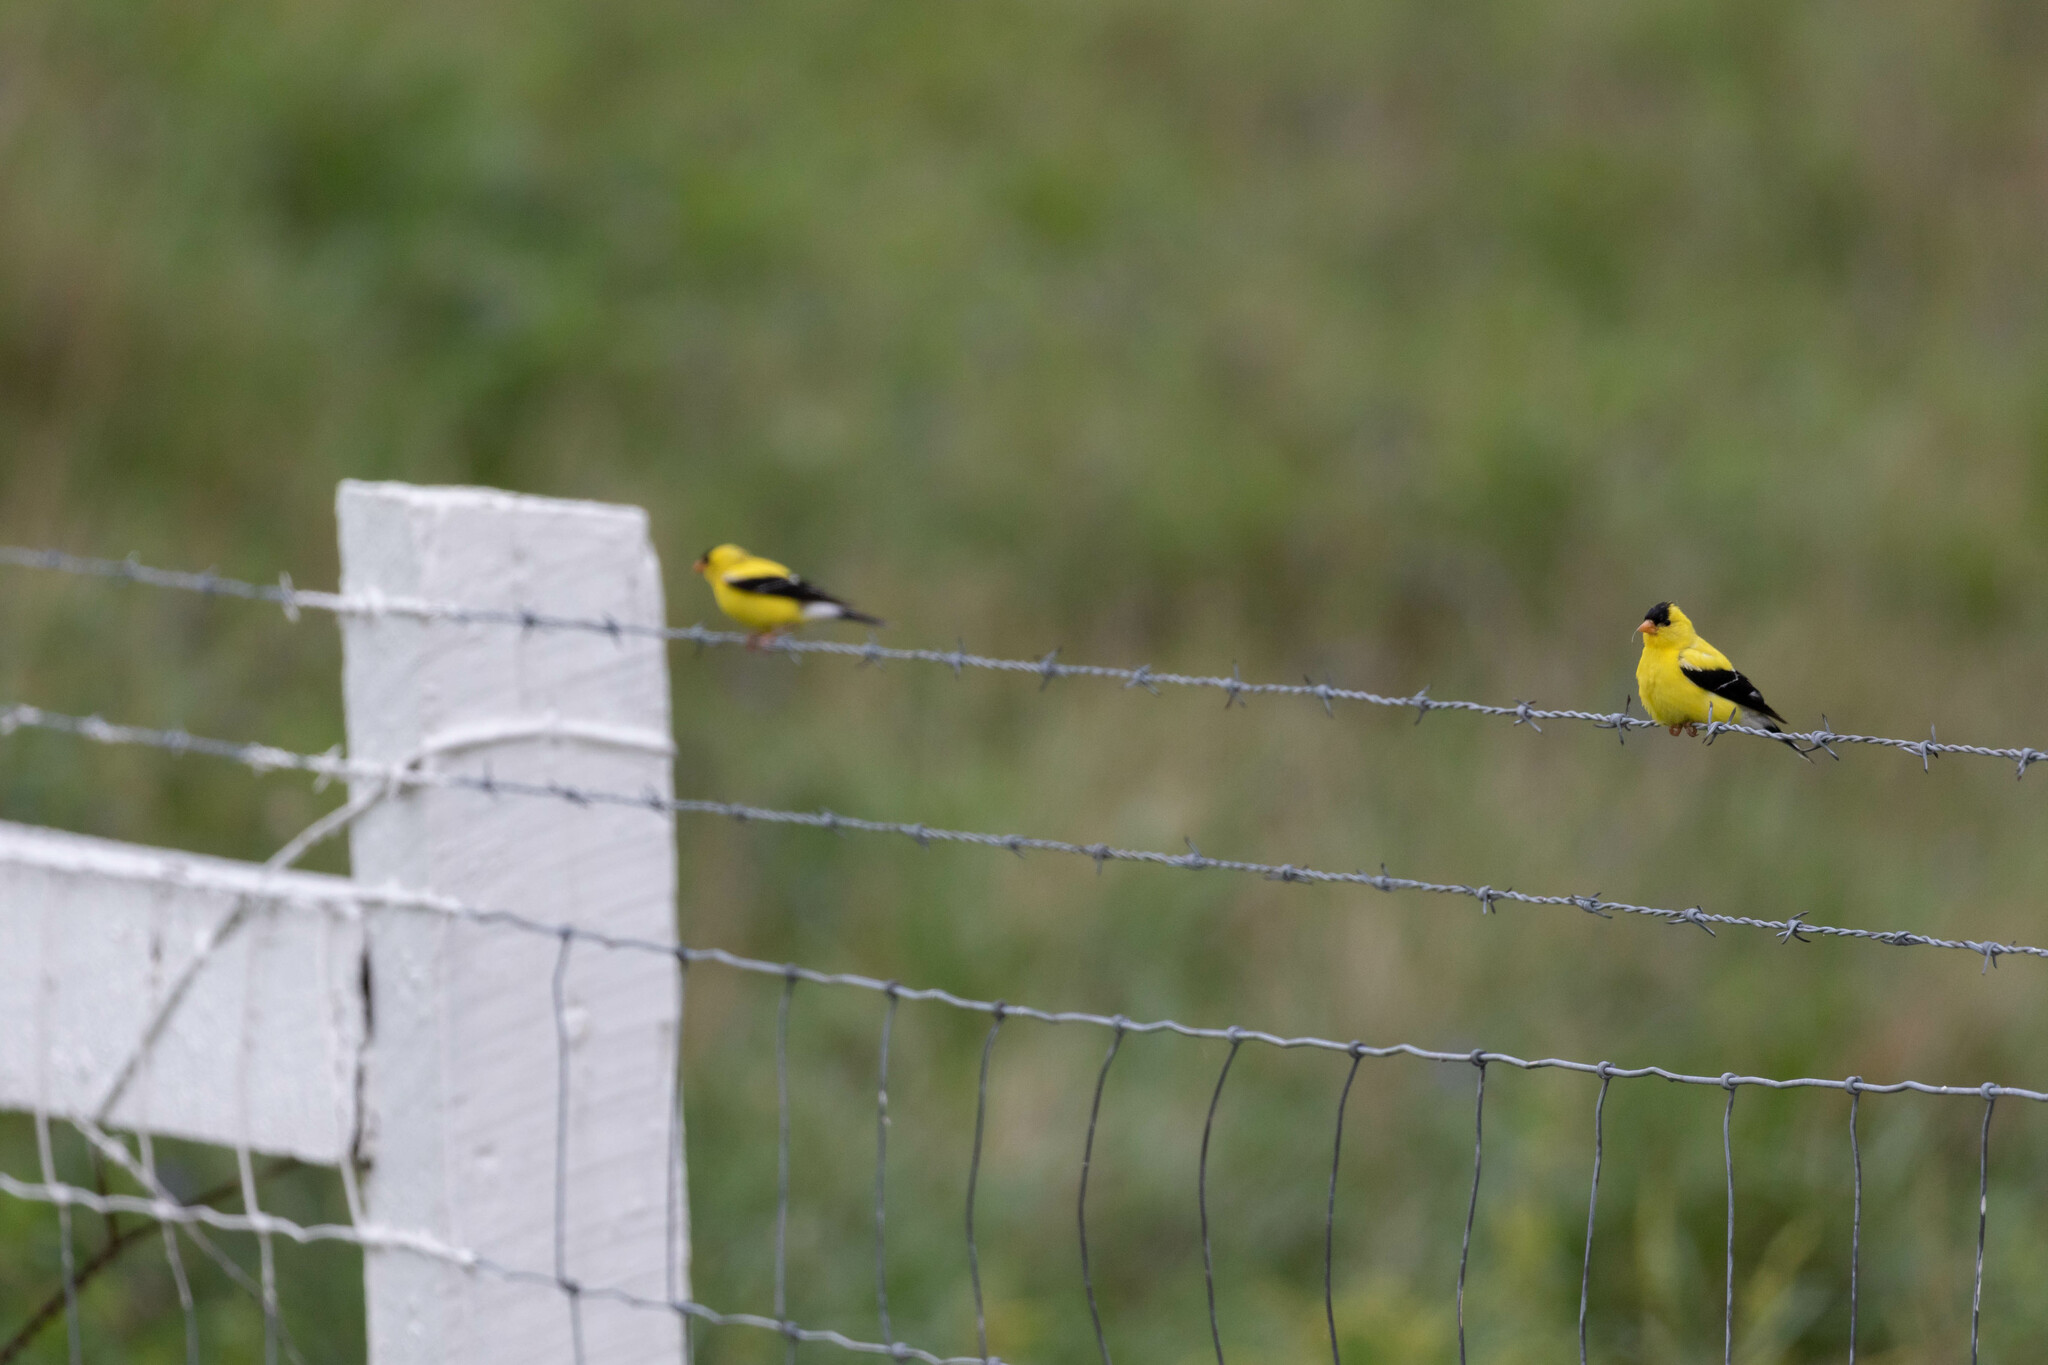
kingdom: Animalia
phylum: Chordata
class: Aves
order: Passeriformes
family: Fringillidae
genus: Spinus
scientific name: Spinus tristis
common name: American goldfinch
